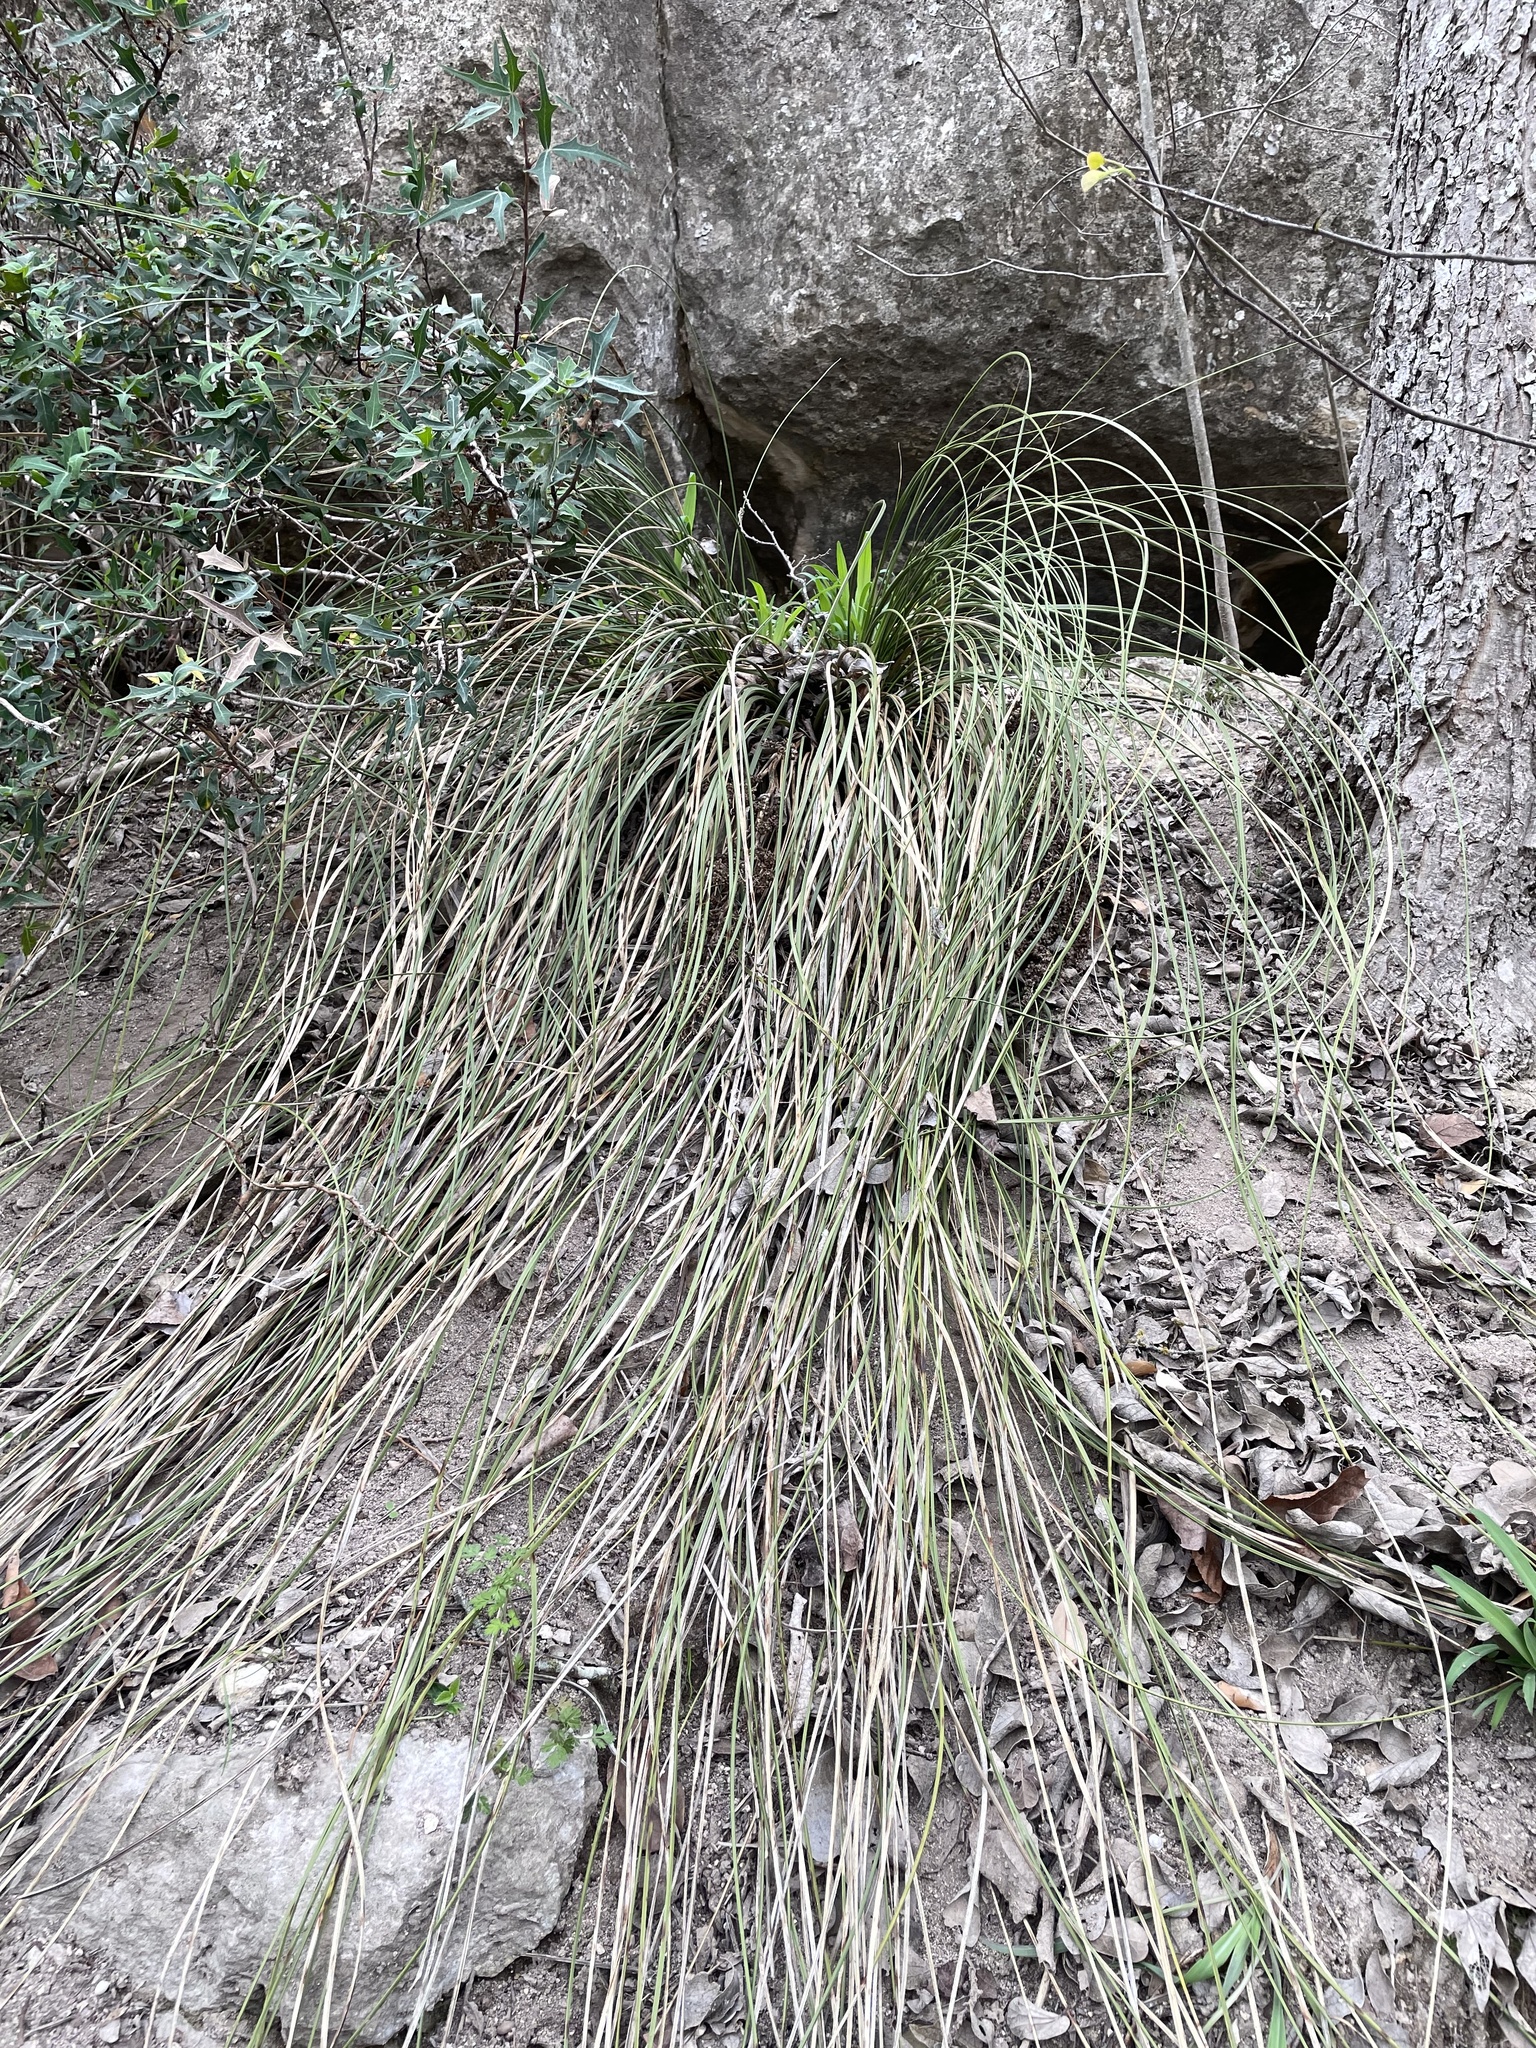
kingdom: Plantae
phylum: Tracheophyta
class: Liliopsida
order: Asparagales
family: Asparagaceae
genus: Nolina
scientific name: Nolina texana
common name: Texas sacahuiste
